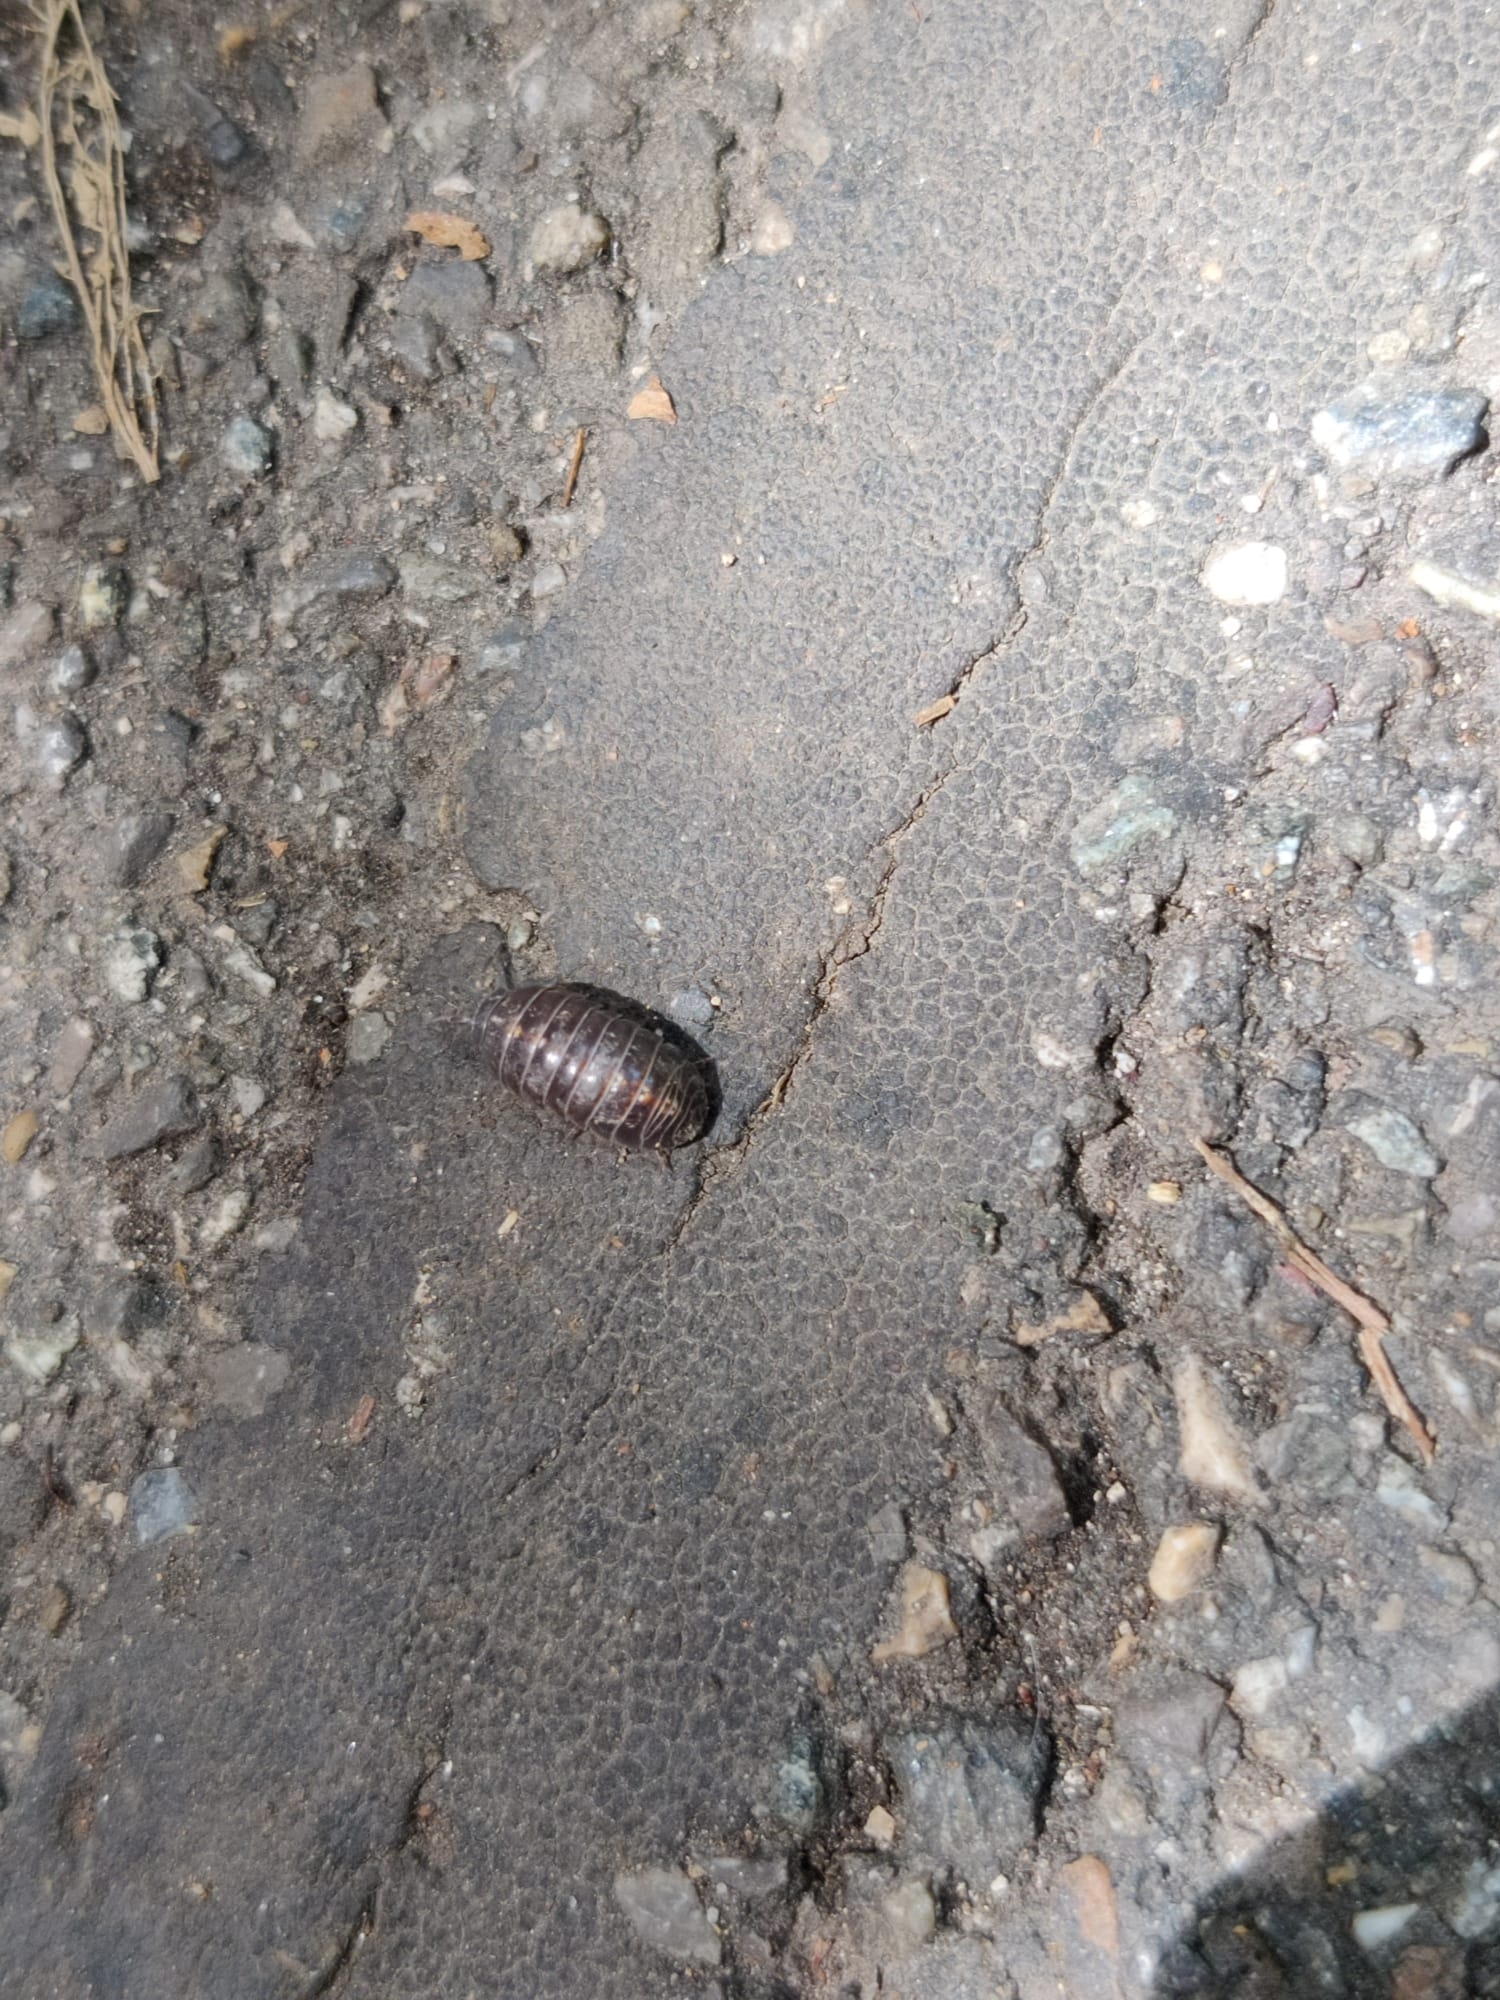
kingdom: Animalia
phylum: Arthropoda
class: Malacostraca
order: Isopoda
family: Armadillidiidae
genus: Armadillidium
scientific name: Armadillidium vulgare
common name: Common pill woodlouse
